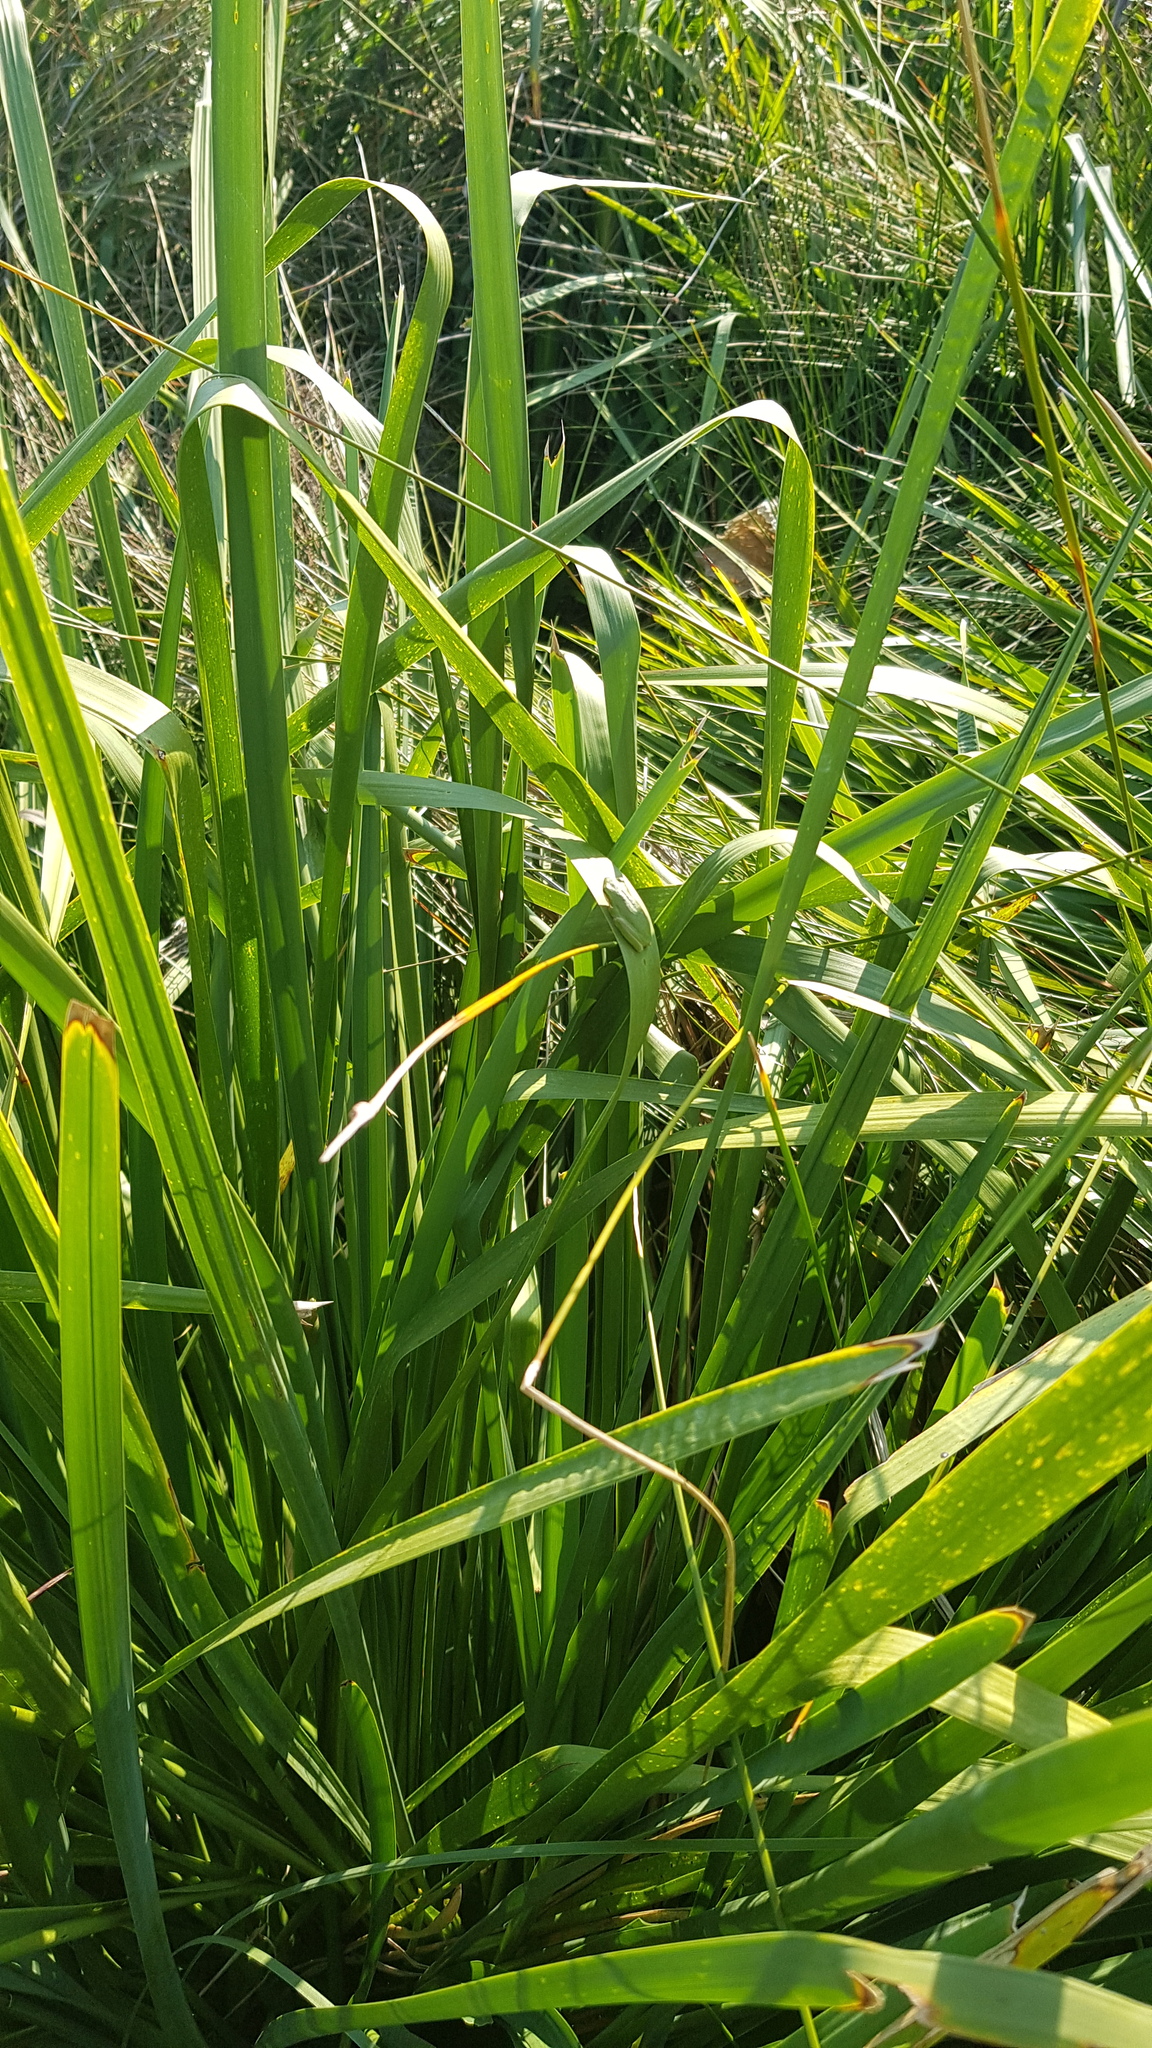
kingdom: Animalia
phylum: Chordata
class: Amphibia
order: Anura
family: Pelodryadidae
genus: Litoria
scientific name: Litoria fallax
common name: Eastern dwarf treefrog
